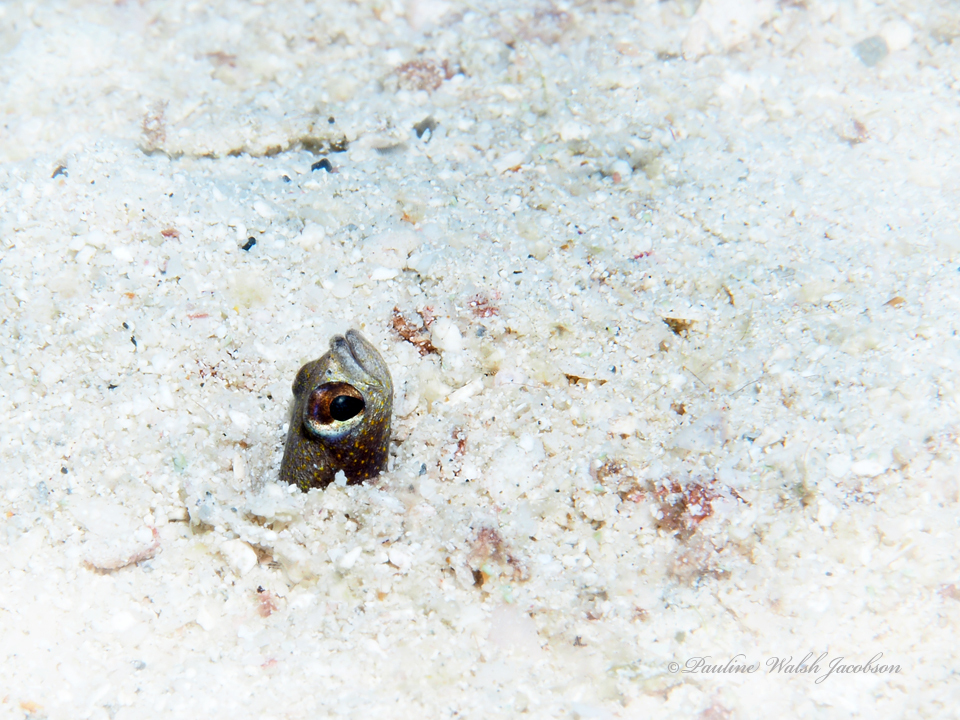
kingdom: Animalia
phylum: Chordata
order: Anguilliformes
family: Congridae
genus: Heteroconger
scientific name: Heteroconger longissimus
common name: Garden eel
